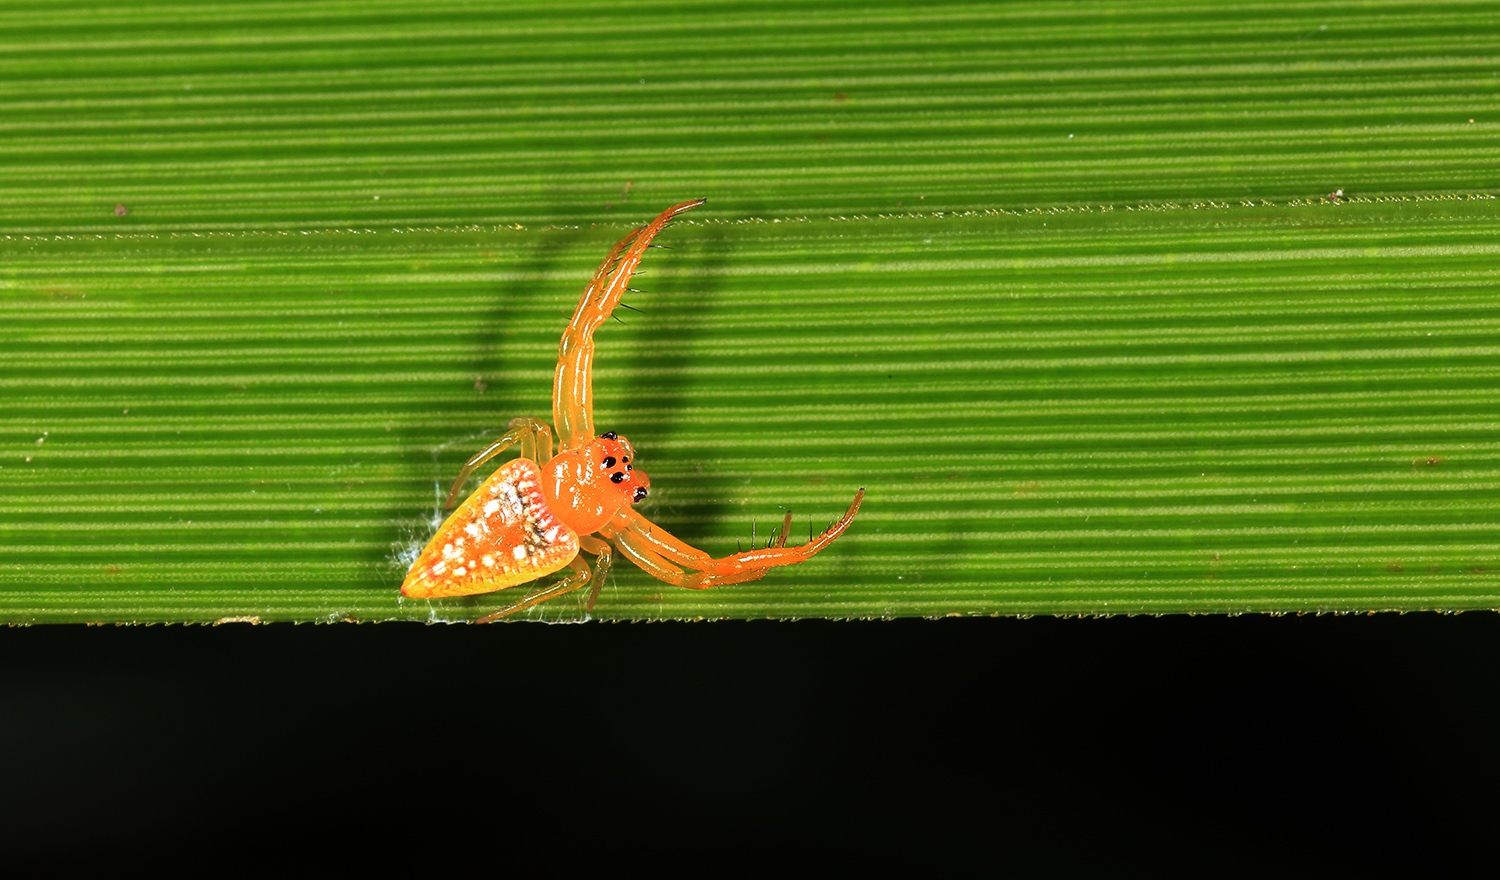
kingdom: Animalia
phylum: Arthropoda
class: Arachnida
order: Araneae
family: Arkyidae
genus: Arkys
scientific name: Arkys walckenaeri
